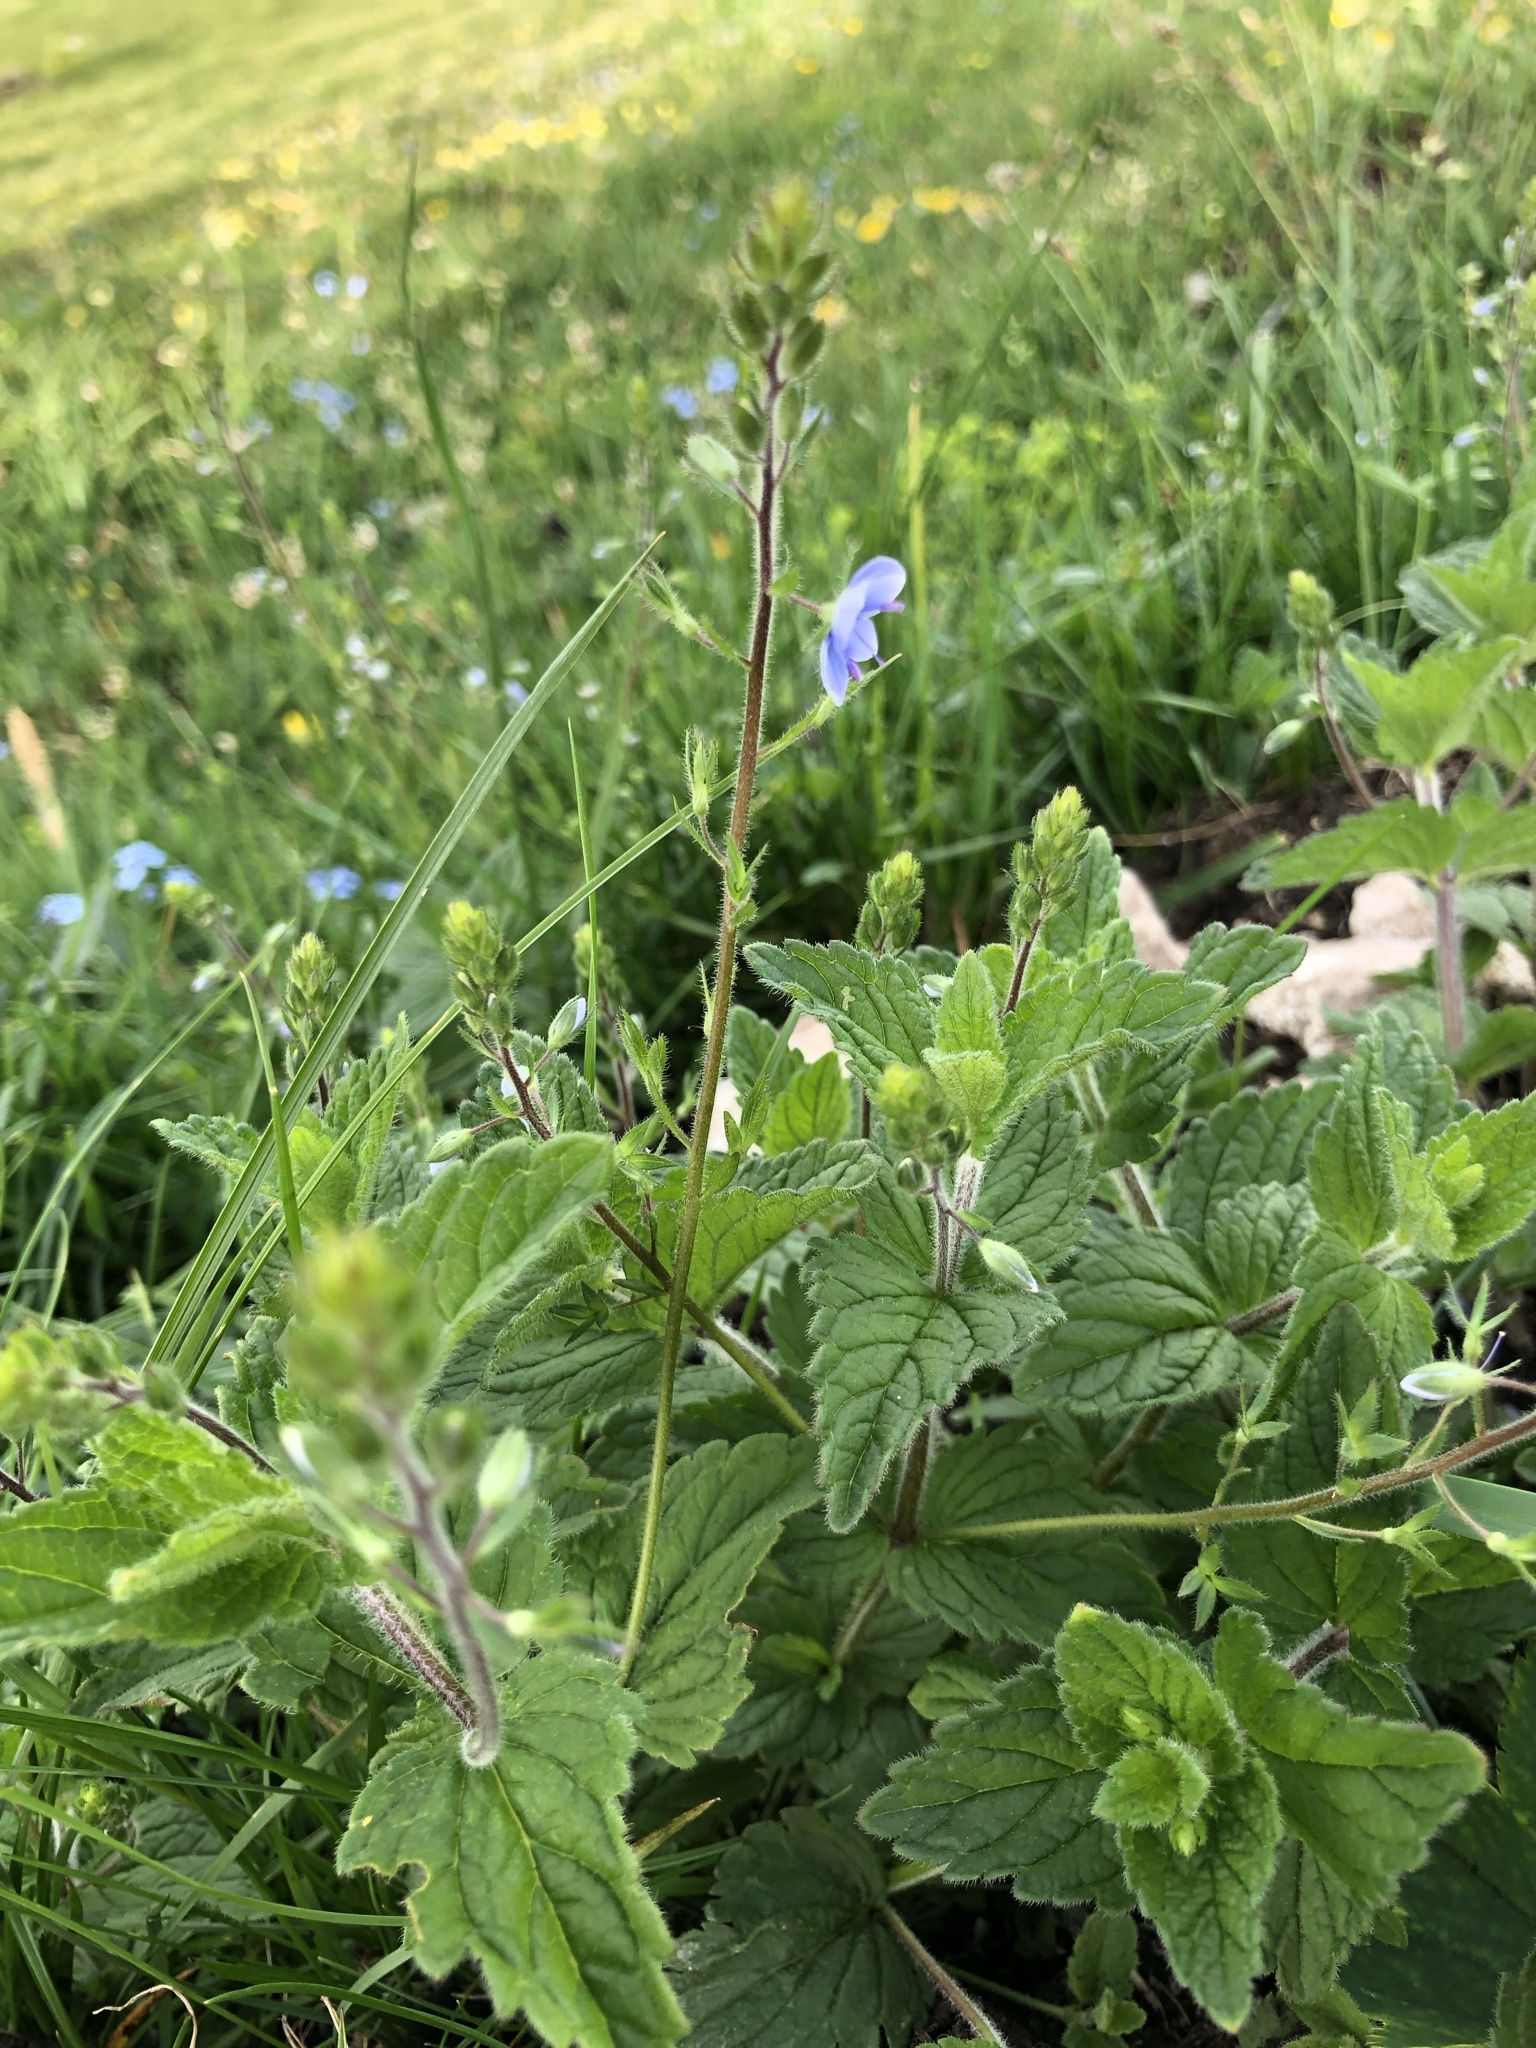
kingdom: Plantae
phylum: Tracheophyta
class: Magnoliopsida
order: Lamiales
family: Plantaginaceae
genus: Veronica
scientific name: Veronica chamaedrys
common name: Germander speedwell
